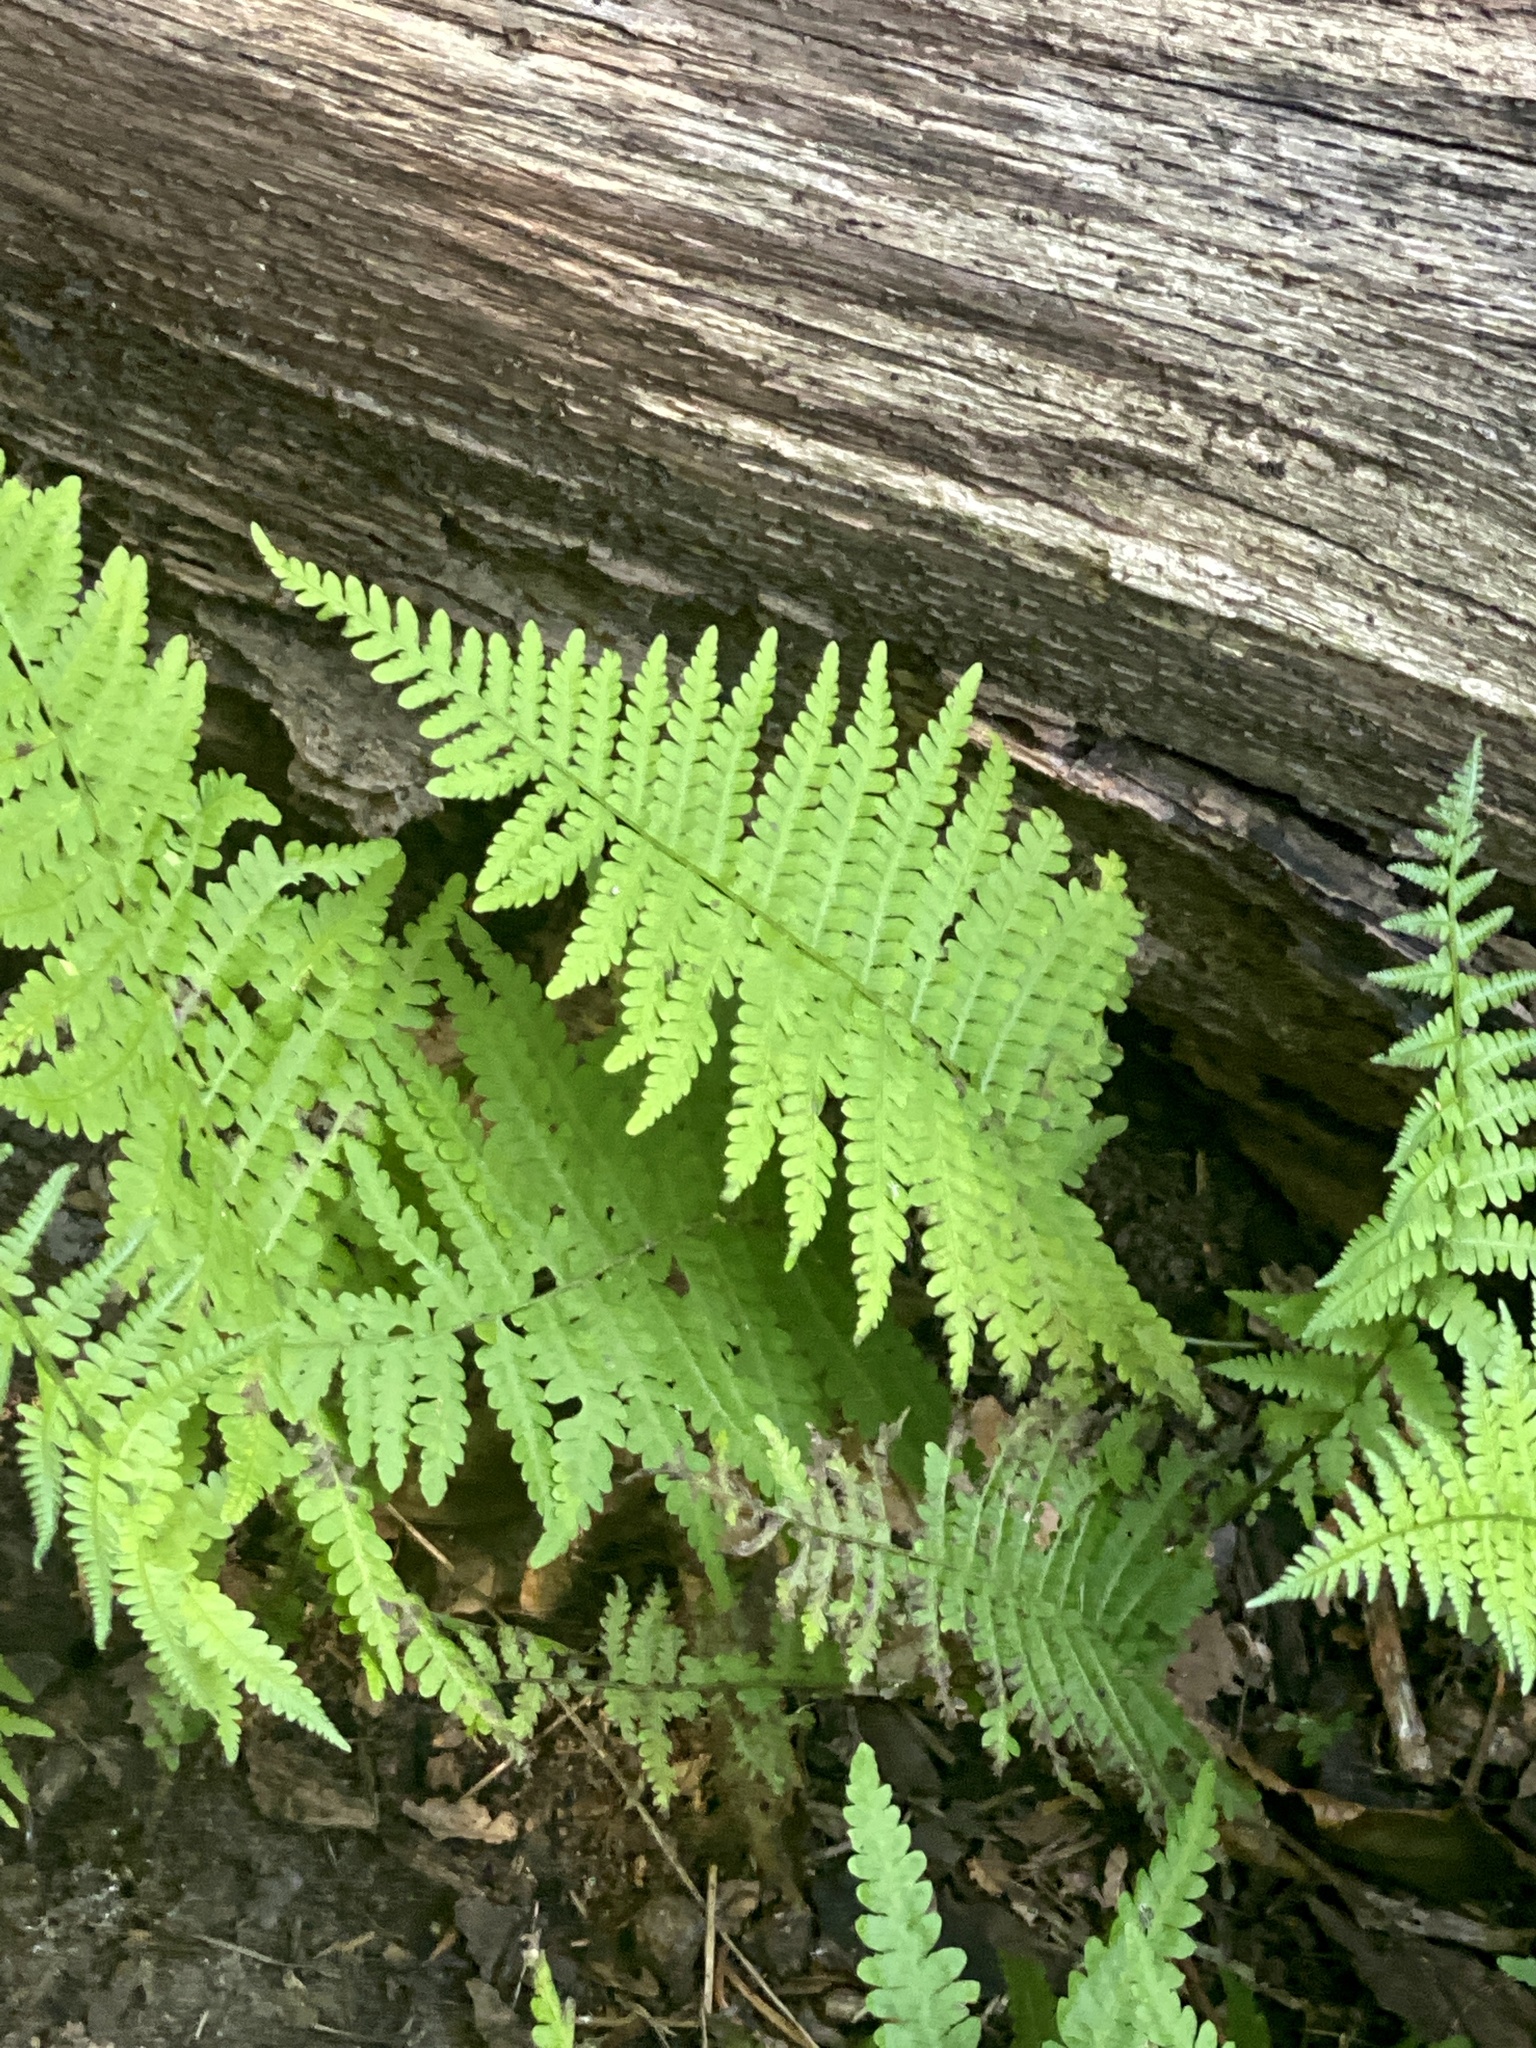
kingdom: Plantae
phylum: Tracheophyta
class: Polypodiopsida
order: Polypodiales
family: Thelypteridaceae
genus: Amauropelta
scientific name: Amauropelta noveboracensis
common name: New york fern
